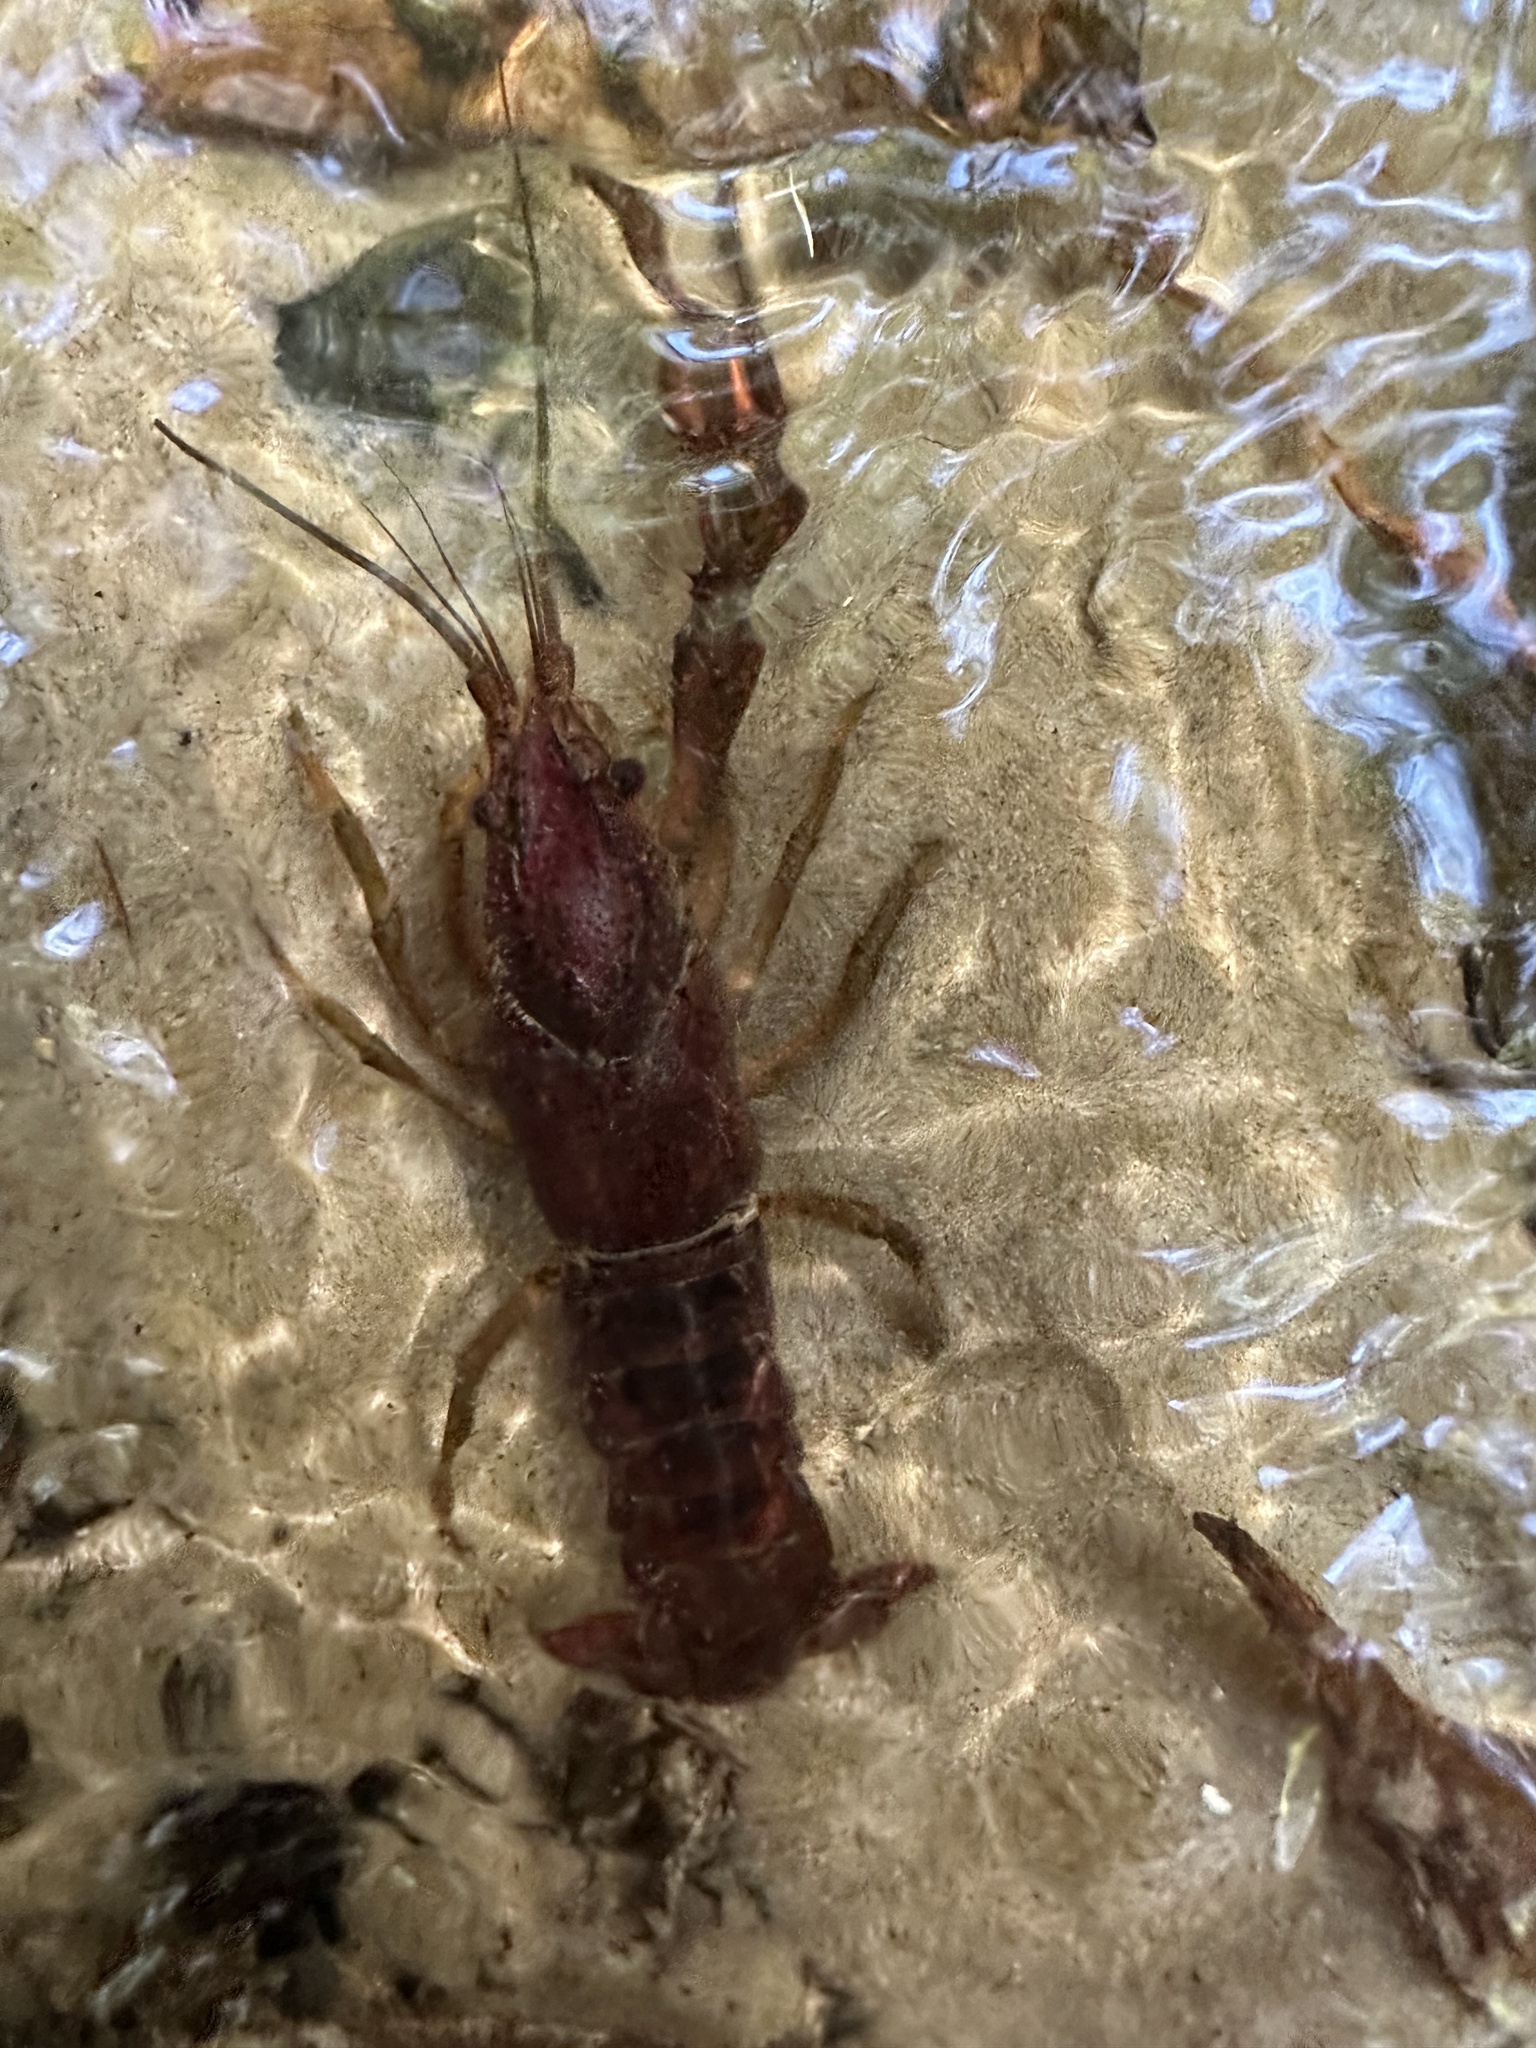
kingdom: Animalia
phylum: Arthropoda
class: Malacostraca
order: Decapoda
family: Cambaridae
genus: Procambarus
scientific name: Procambarus paeninsulanus
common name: Peninsula crayfish
